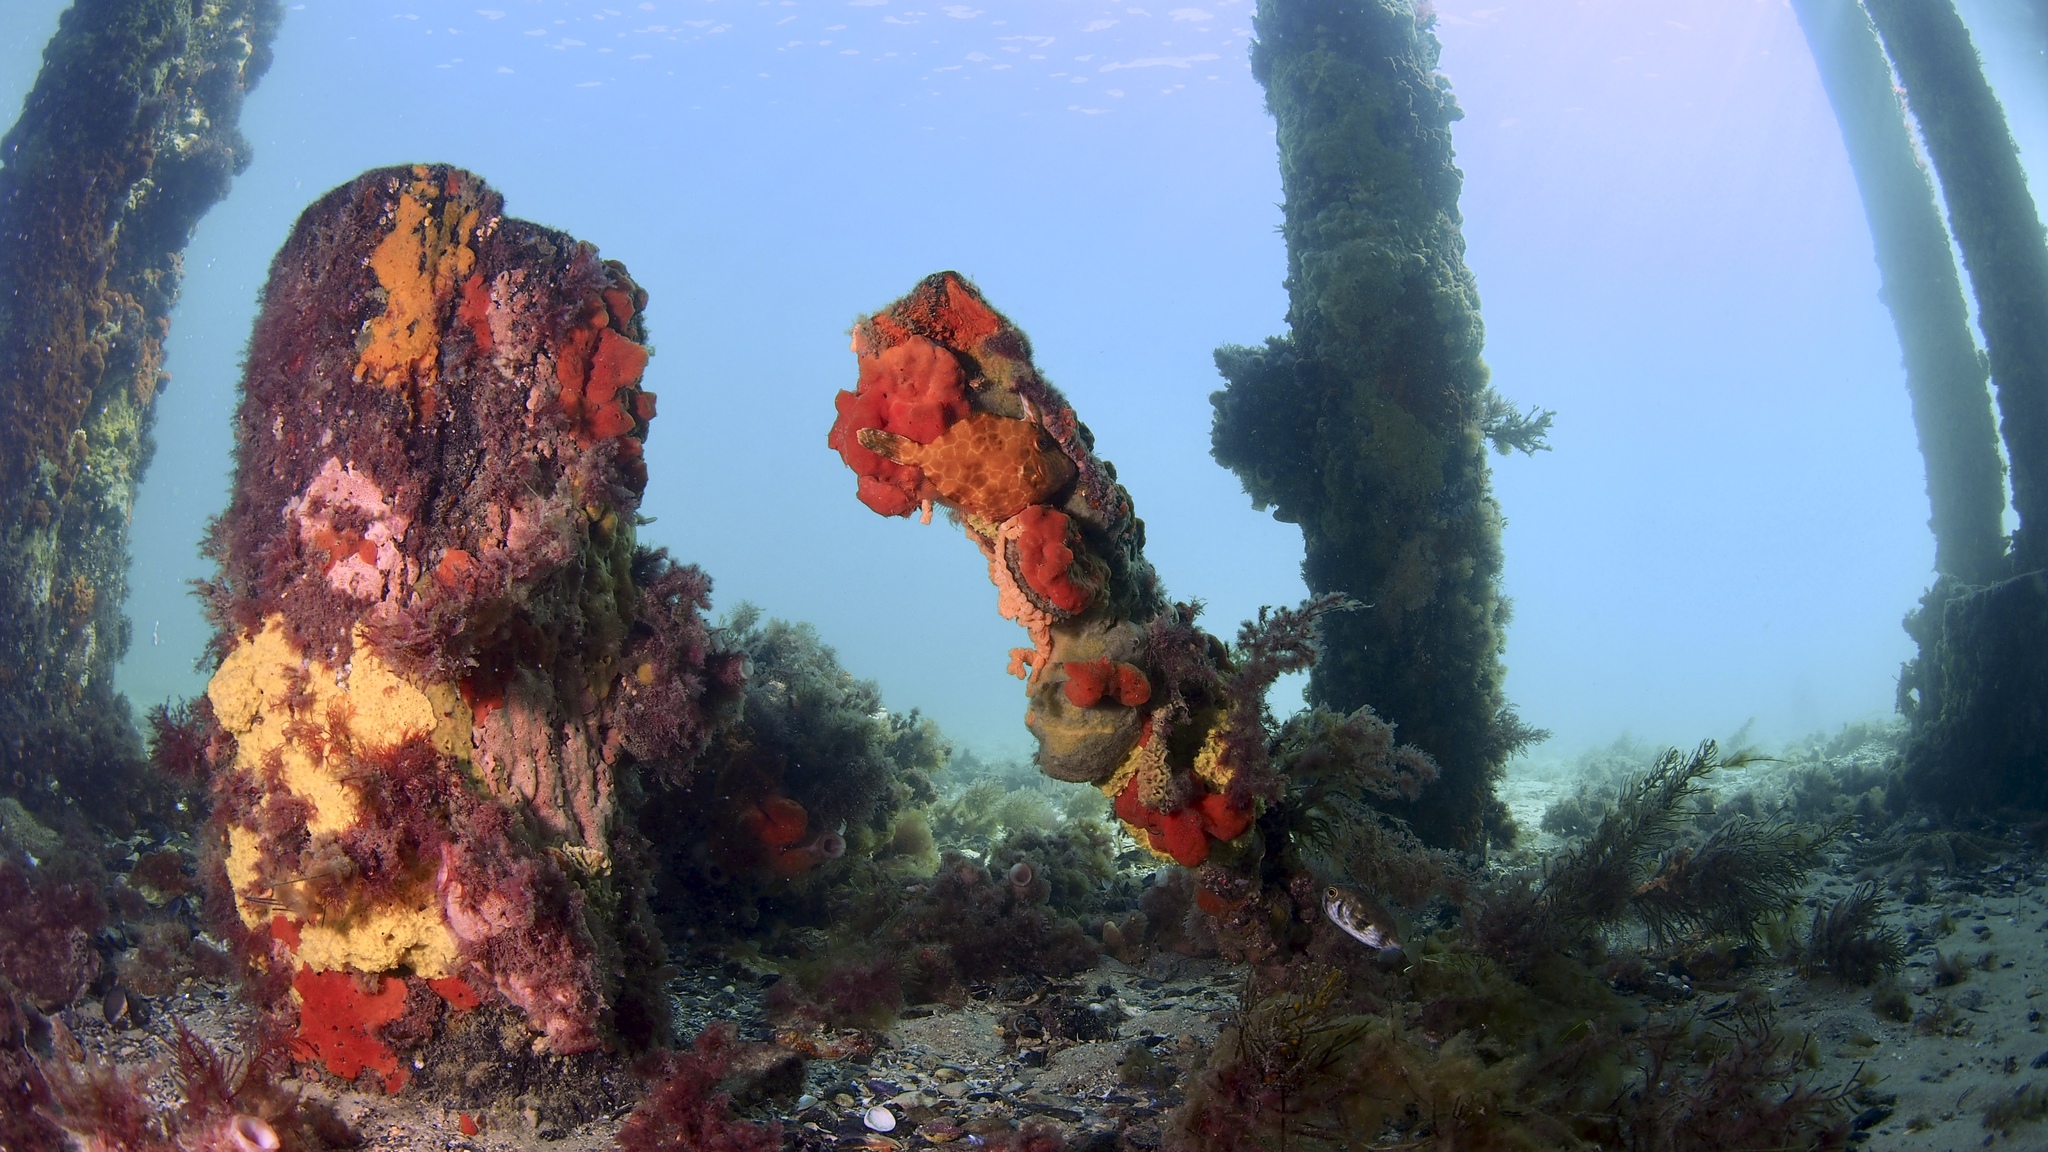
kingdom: Animalia
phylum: Chordata
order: Tetraodontiformes
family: Monacanthidae
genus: Eubalichthys
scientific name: Eubalichthys gunnii
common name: Gunn's leatherjacket
